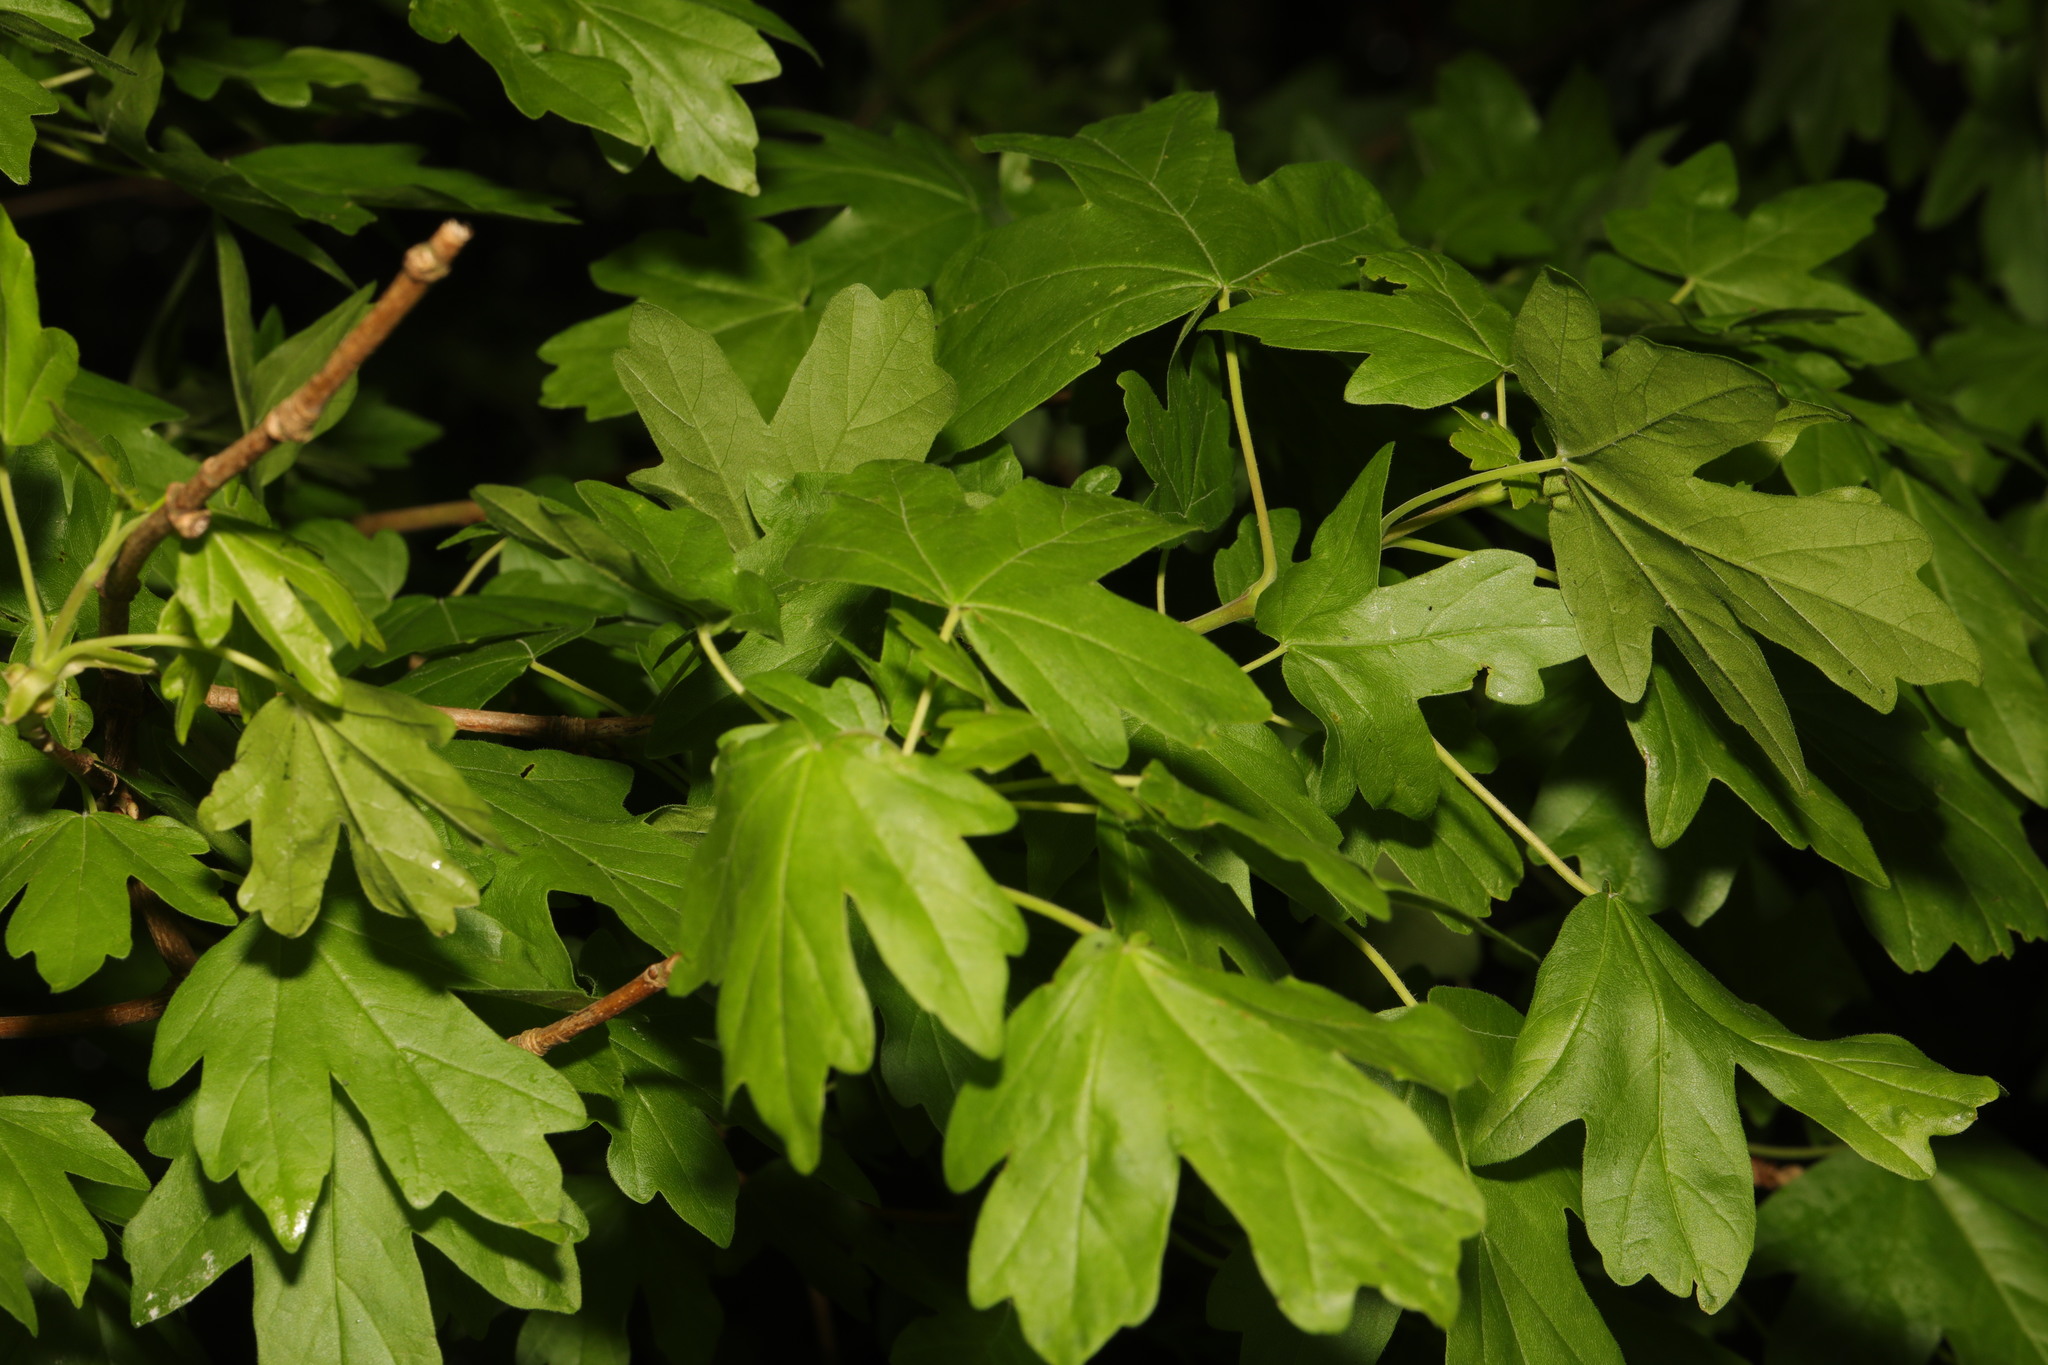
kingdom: Plantae
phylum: Tracheophyta
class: Magnoliopsida
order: Sapindales
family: Sapindaceae
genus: Acer
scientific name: Acer campestre
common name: Field maple
